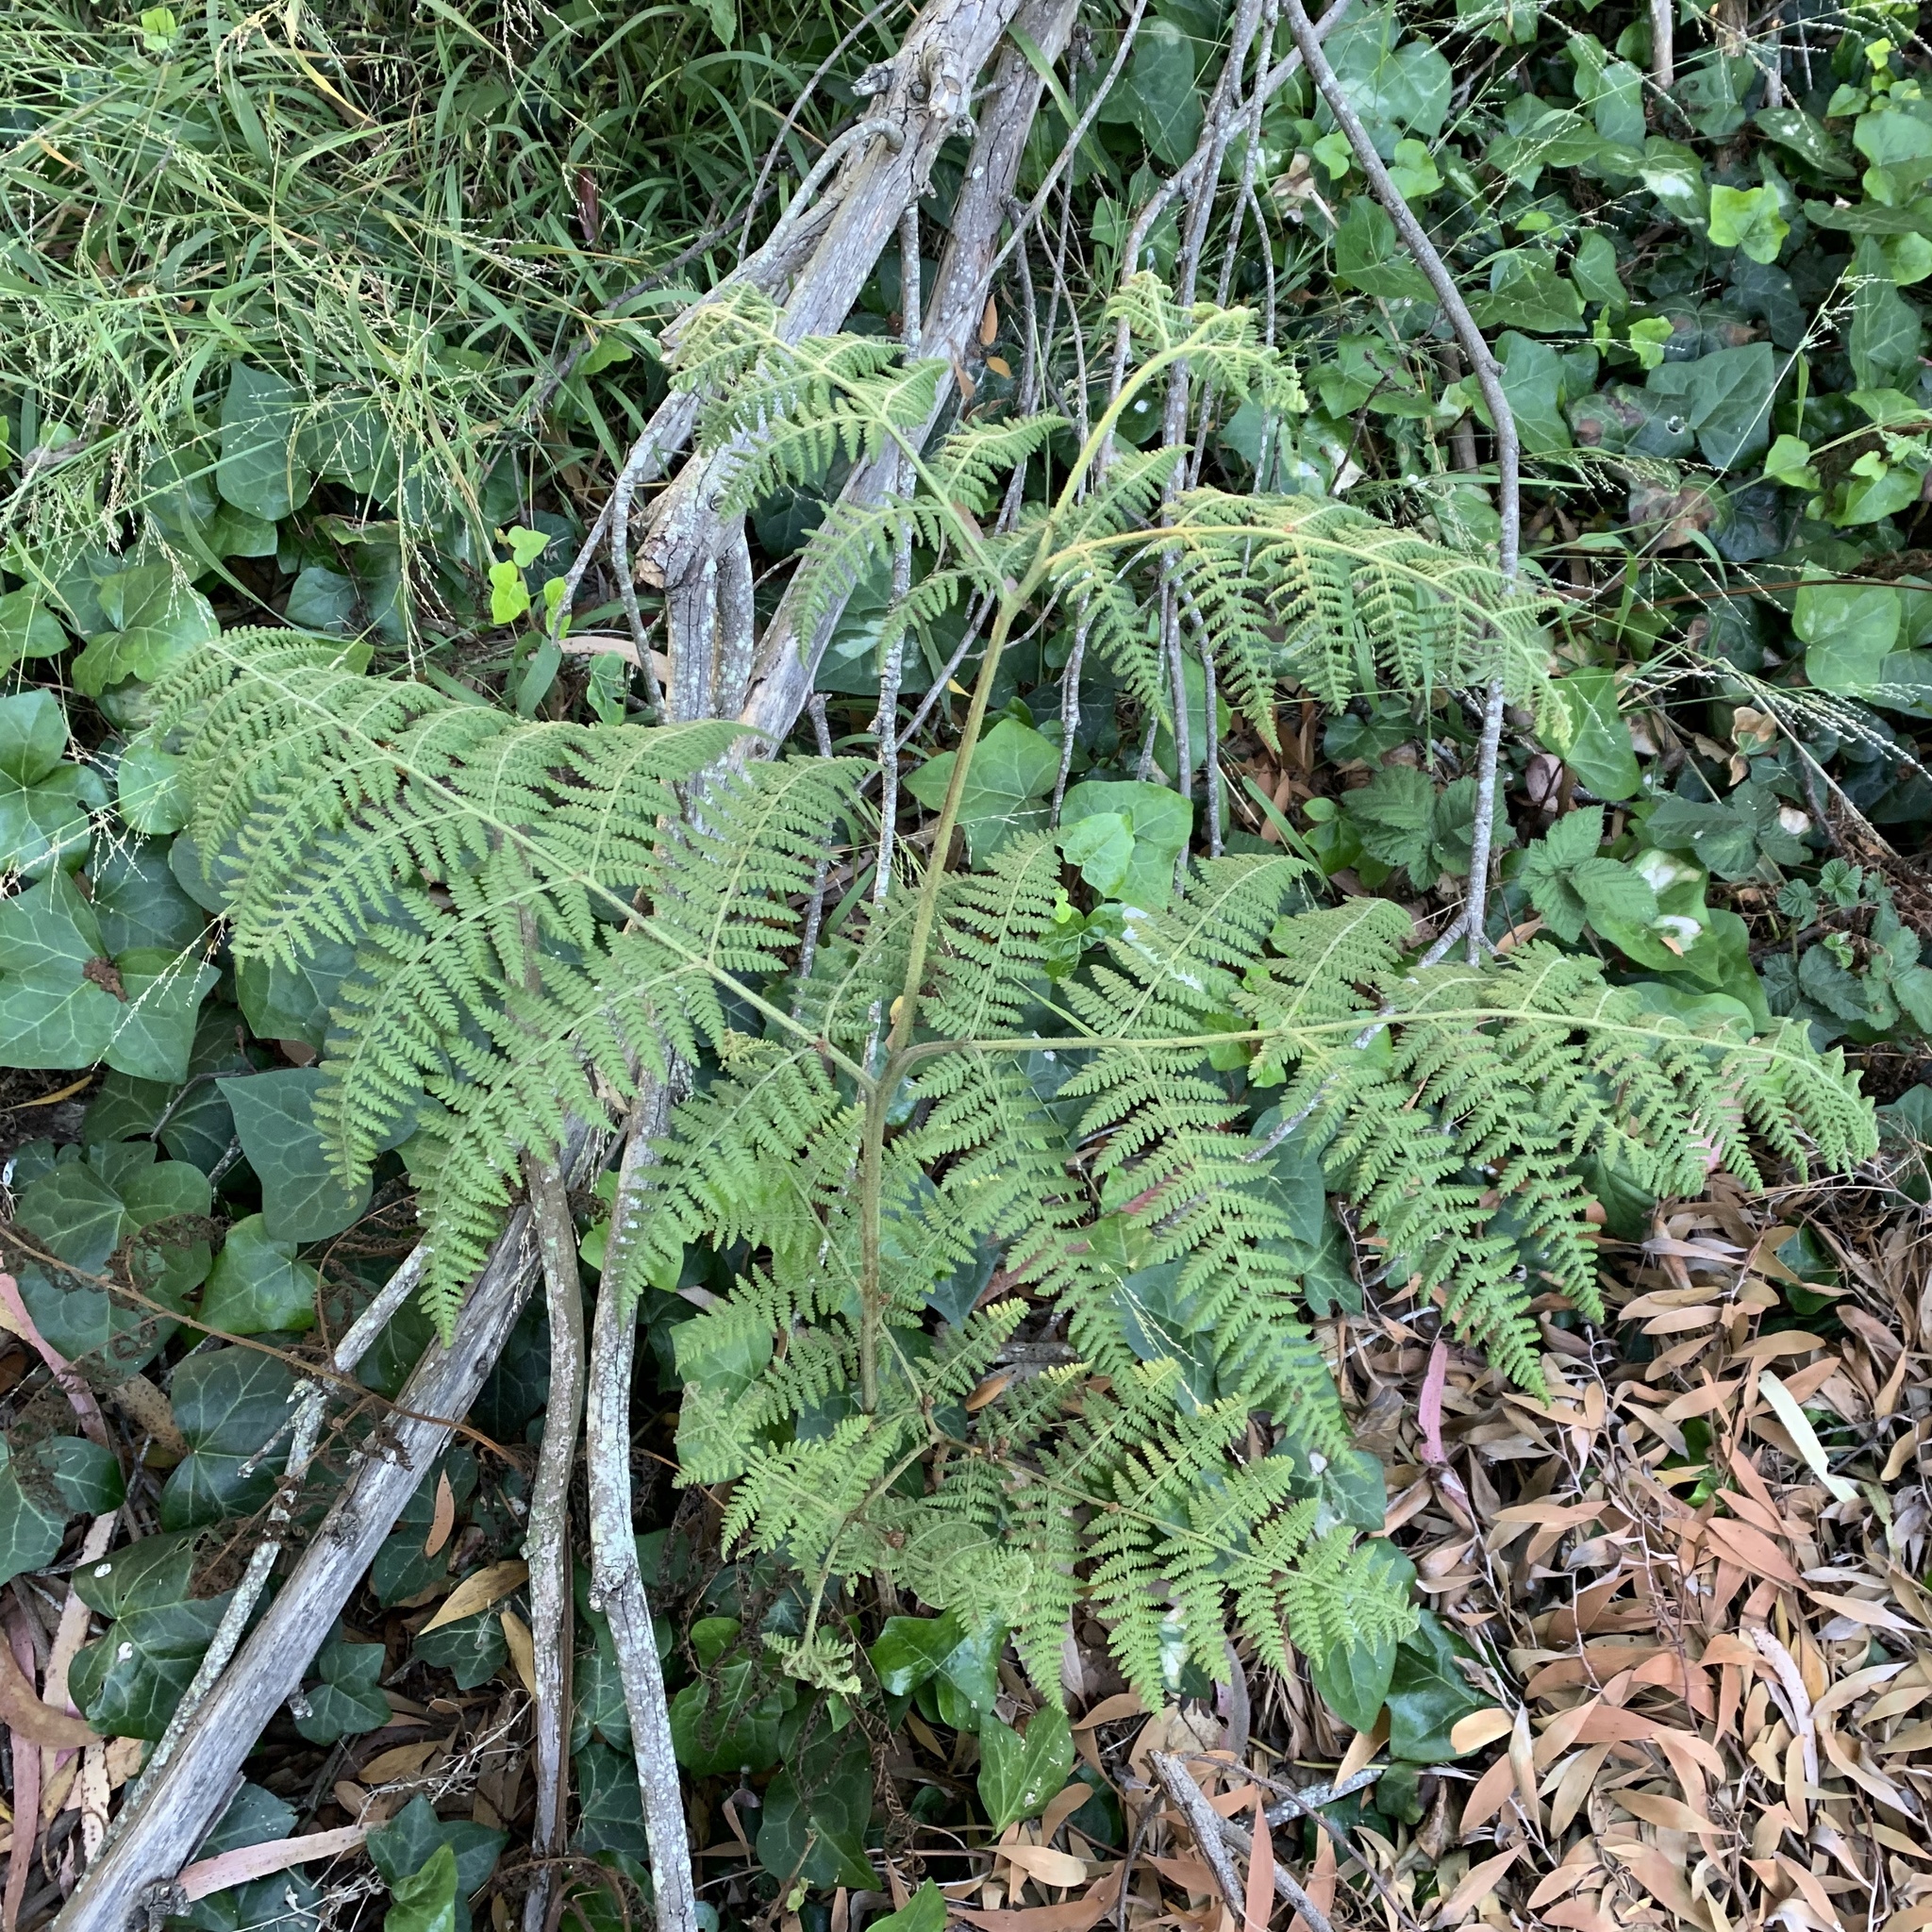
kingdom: Plantae
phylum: Tracheophyta
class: Polypodiopsida
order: Polypodiales
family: Dennstaedtiaceae
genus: Pteridium
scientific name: Pteridium aquilinum
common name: Bracken
